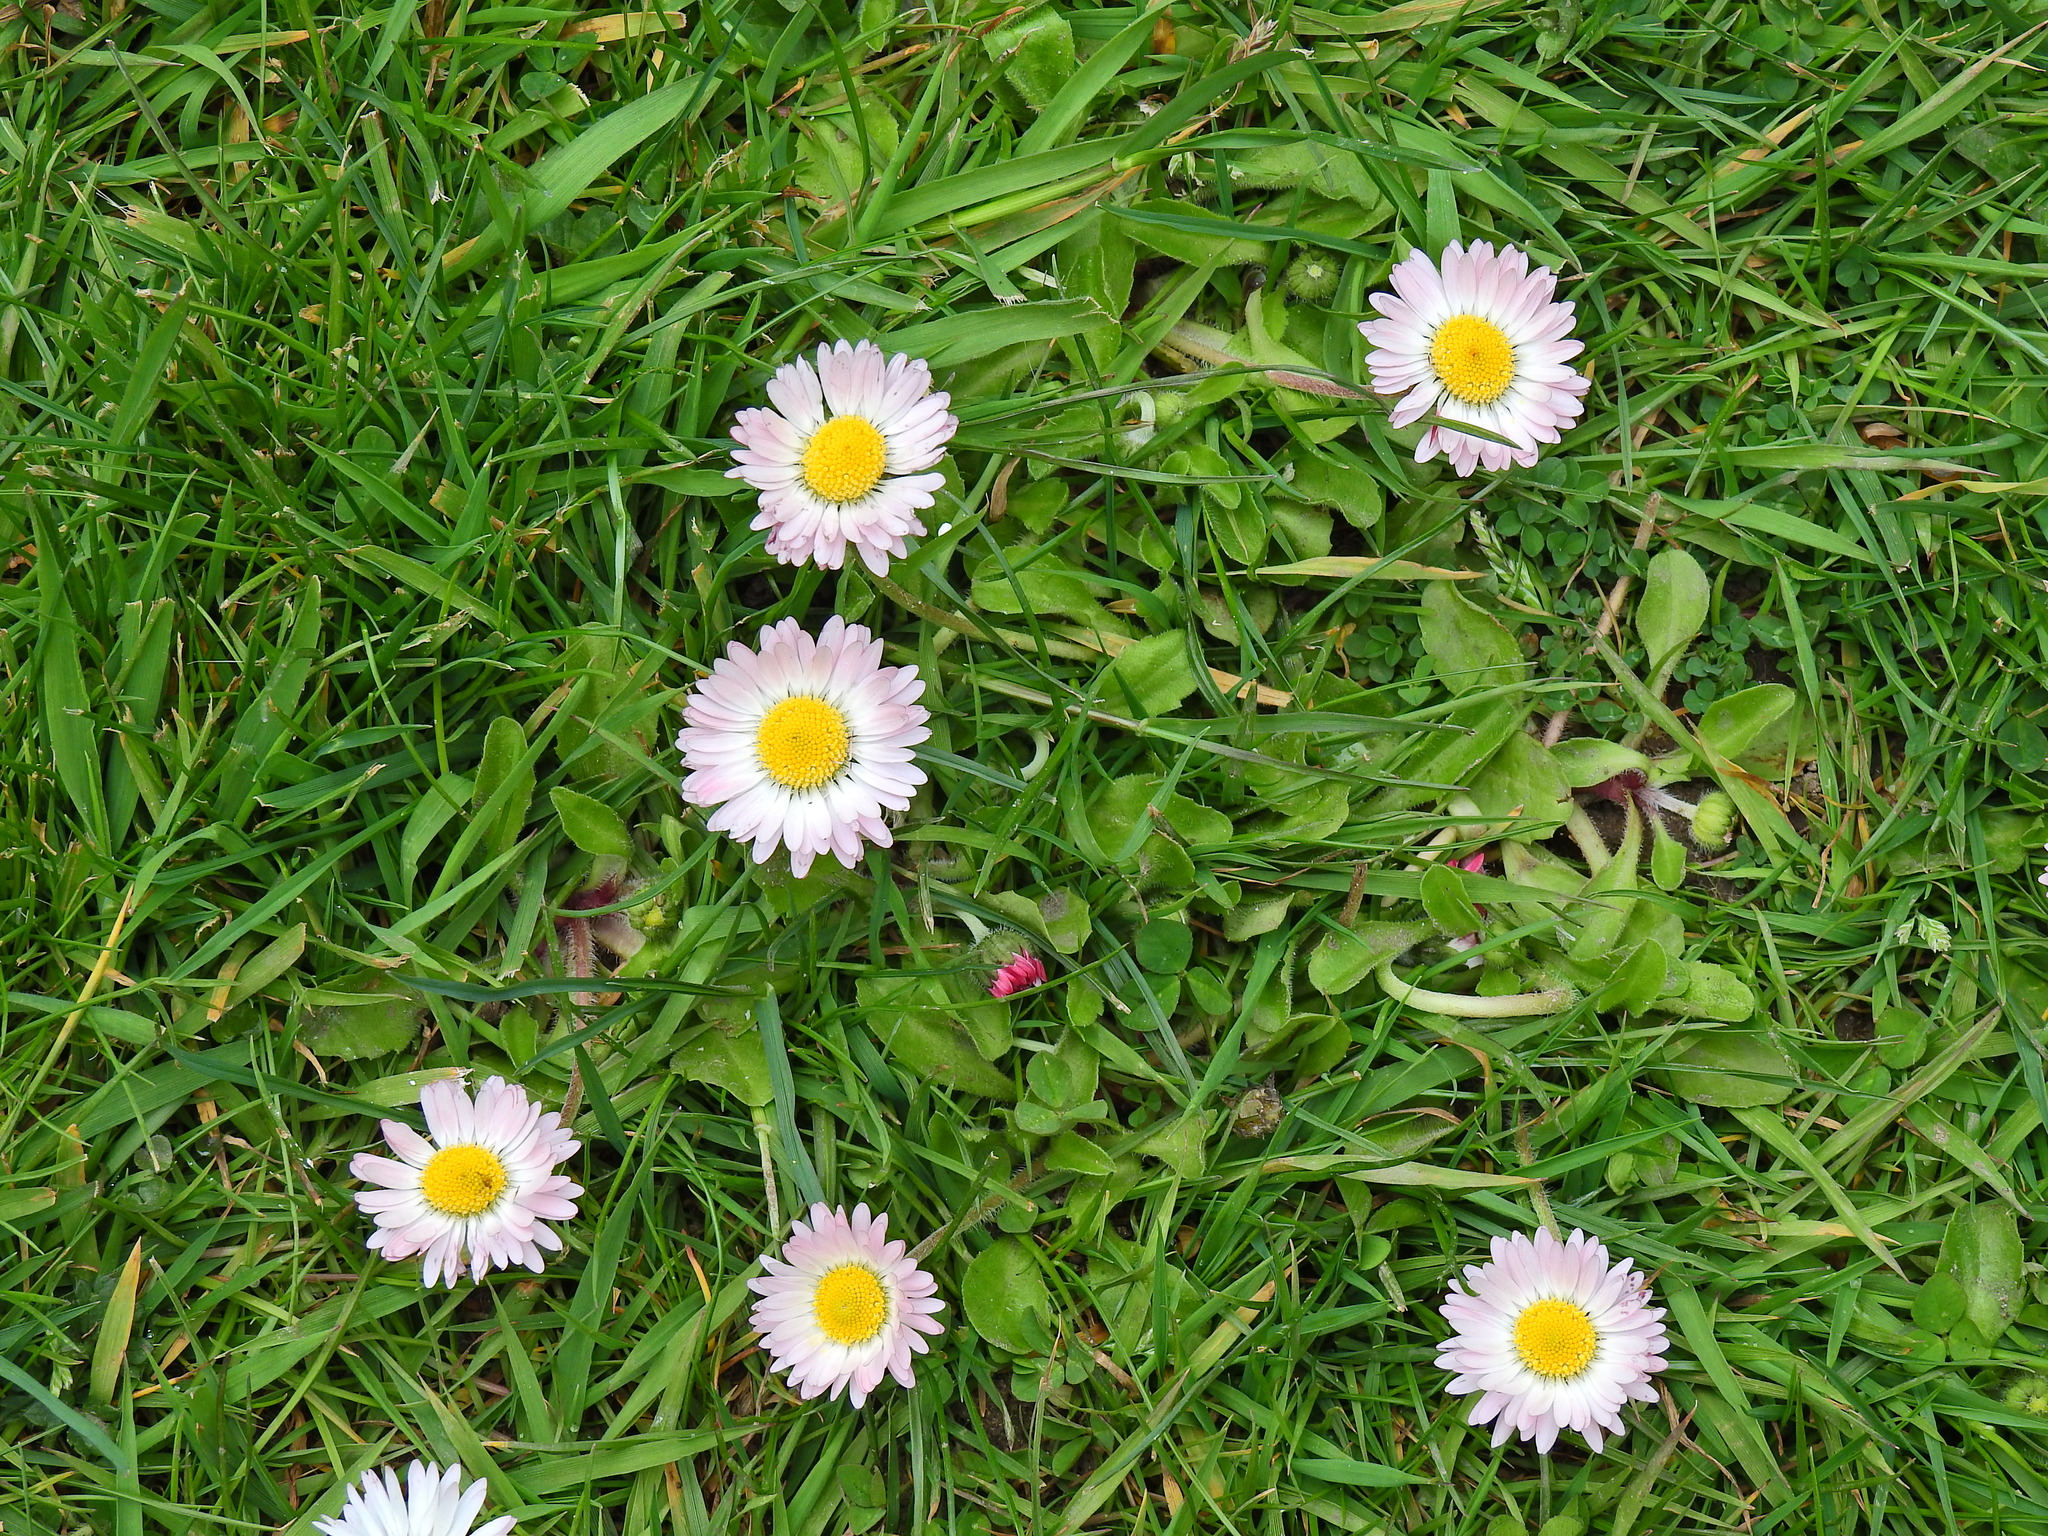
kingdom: Plantae
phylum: Tracheophyta
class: Magnoliopsida
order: Asterales
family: Asteraceae
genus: Bellis
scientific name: Bellis perennis
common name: Lawndaisy
